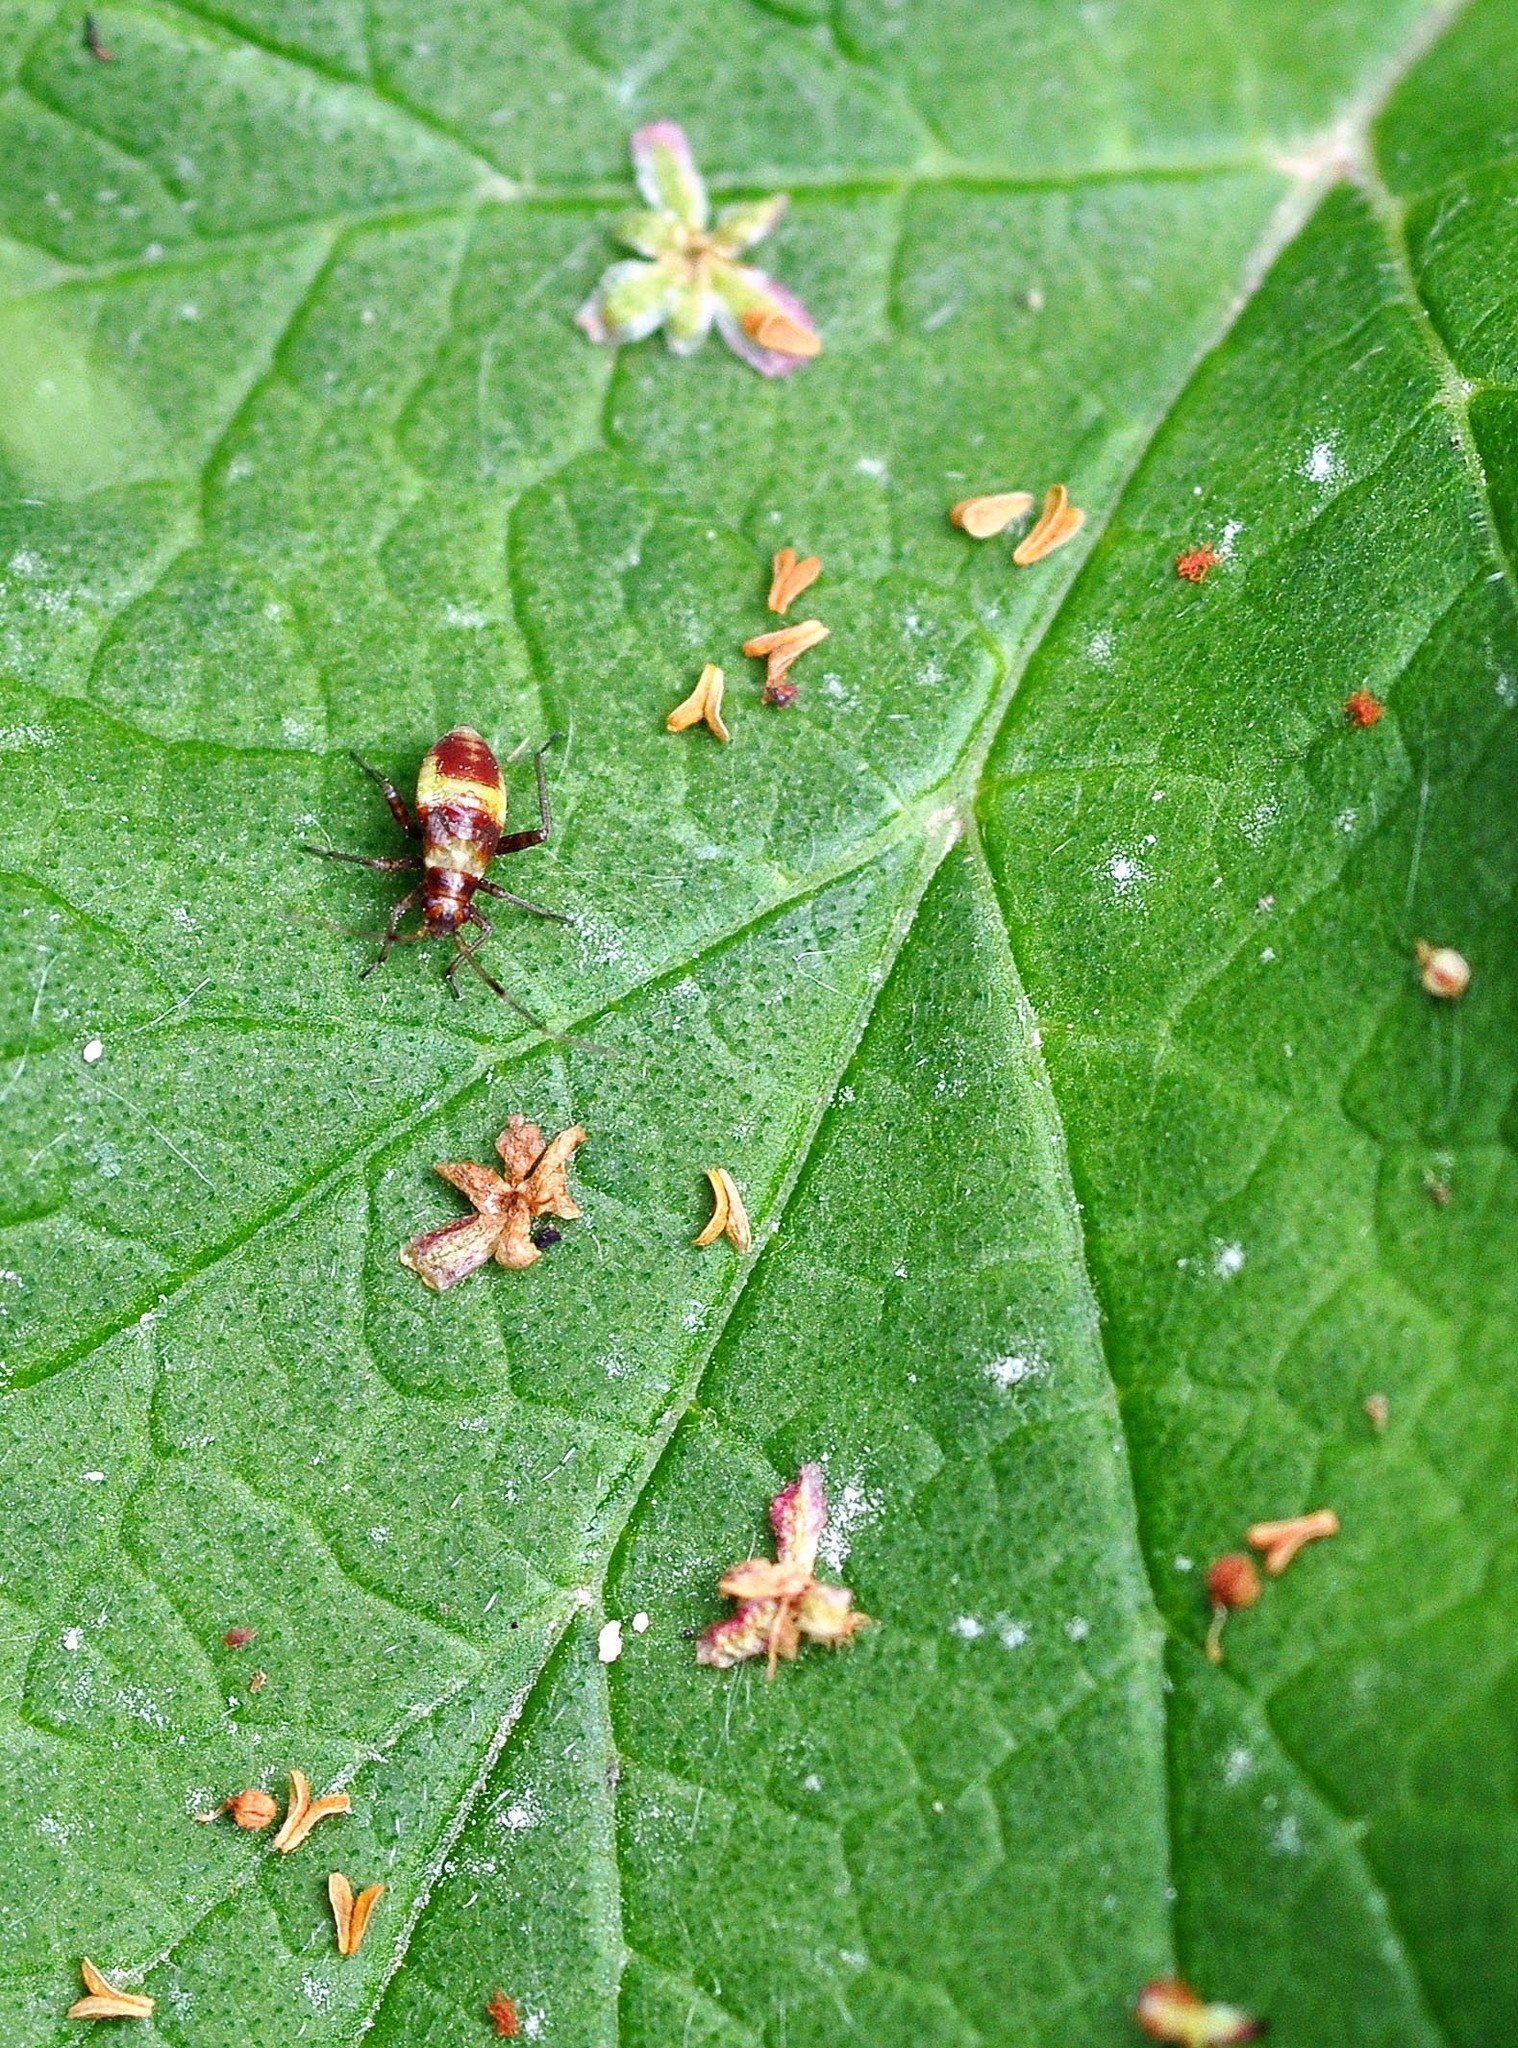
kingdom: Animalia
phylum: Arthropoda
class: Insecta
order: Hemiptera
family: Miridae
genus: Closterotomus
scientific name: Closterotomus fulvomaculatus
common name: Spotted plant bug
